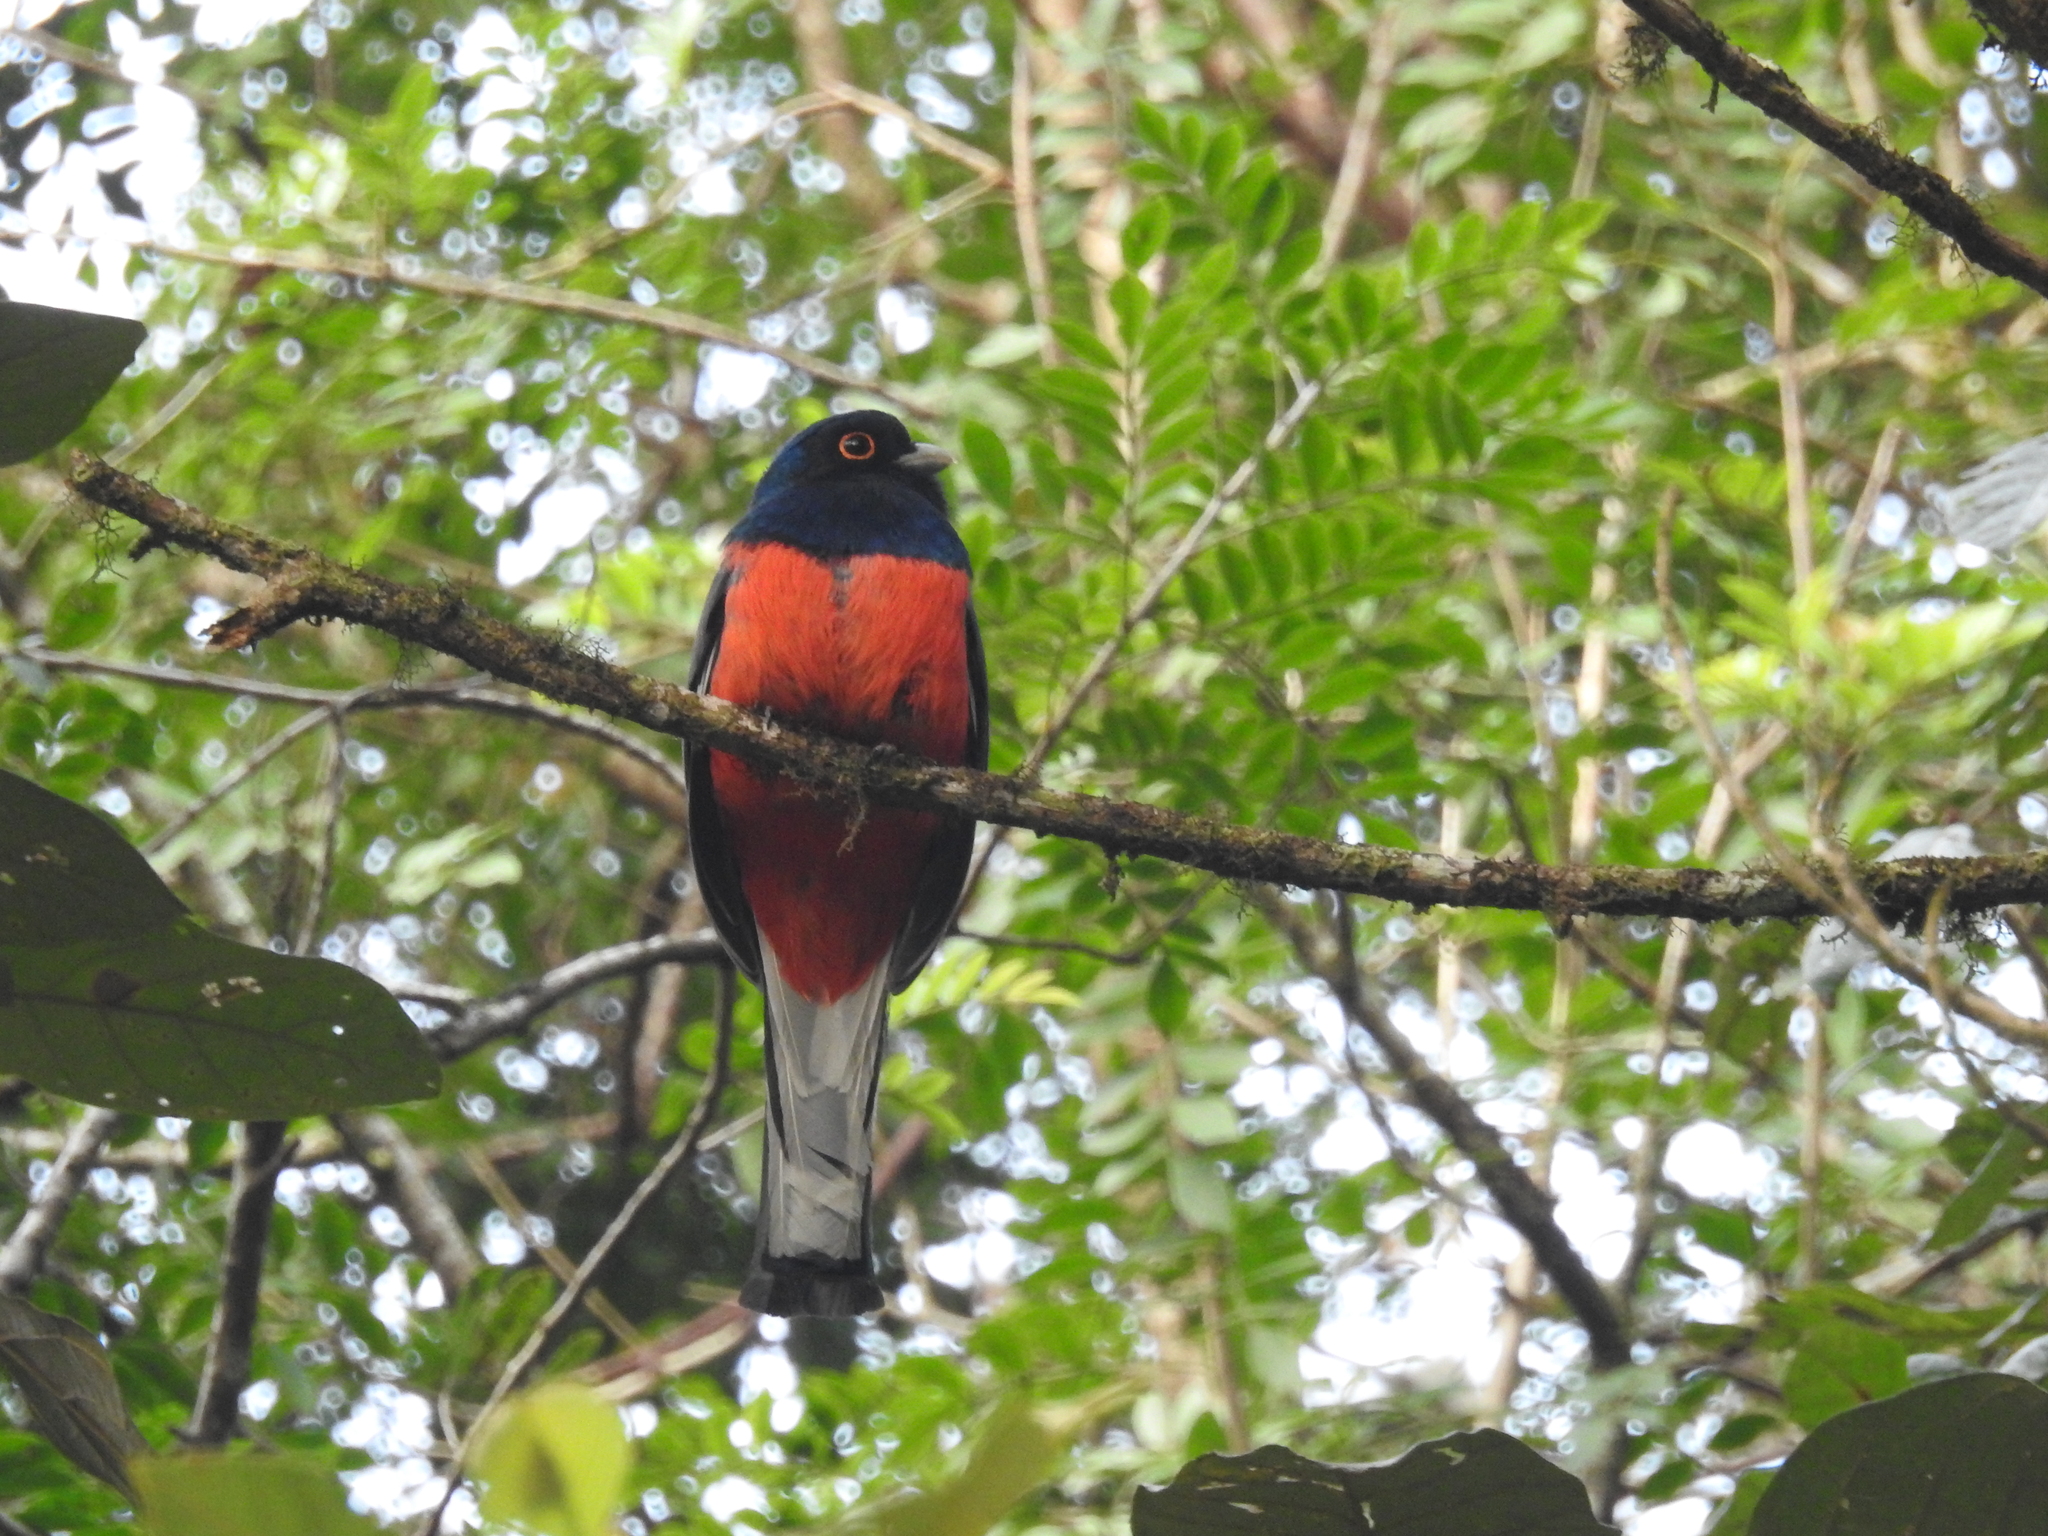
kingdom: Animalia
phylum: Chordata
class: Aves
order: Trogoniformes
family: Trogonidae
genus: Trogon
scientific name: Trogon surrucura
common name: Surucua trogon
